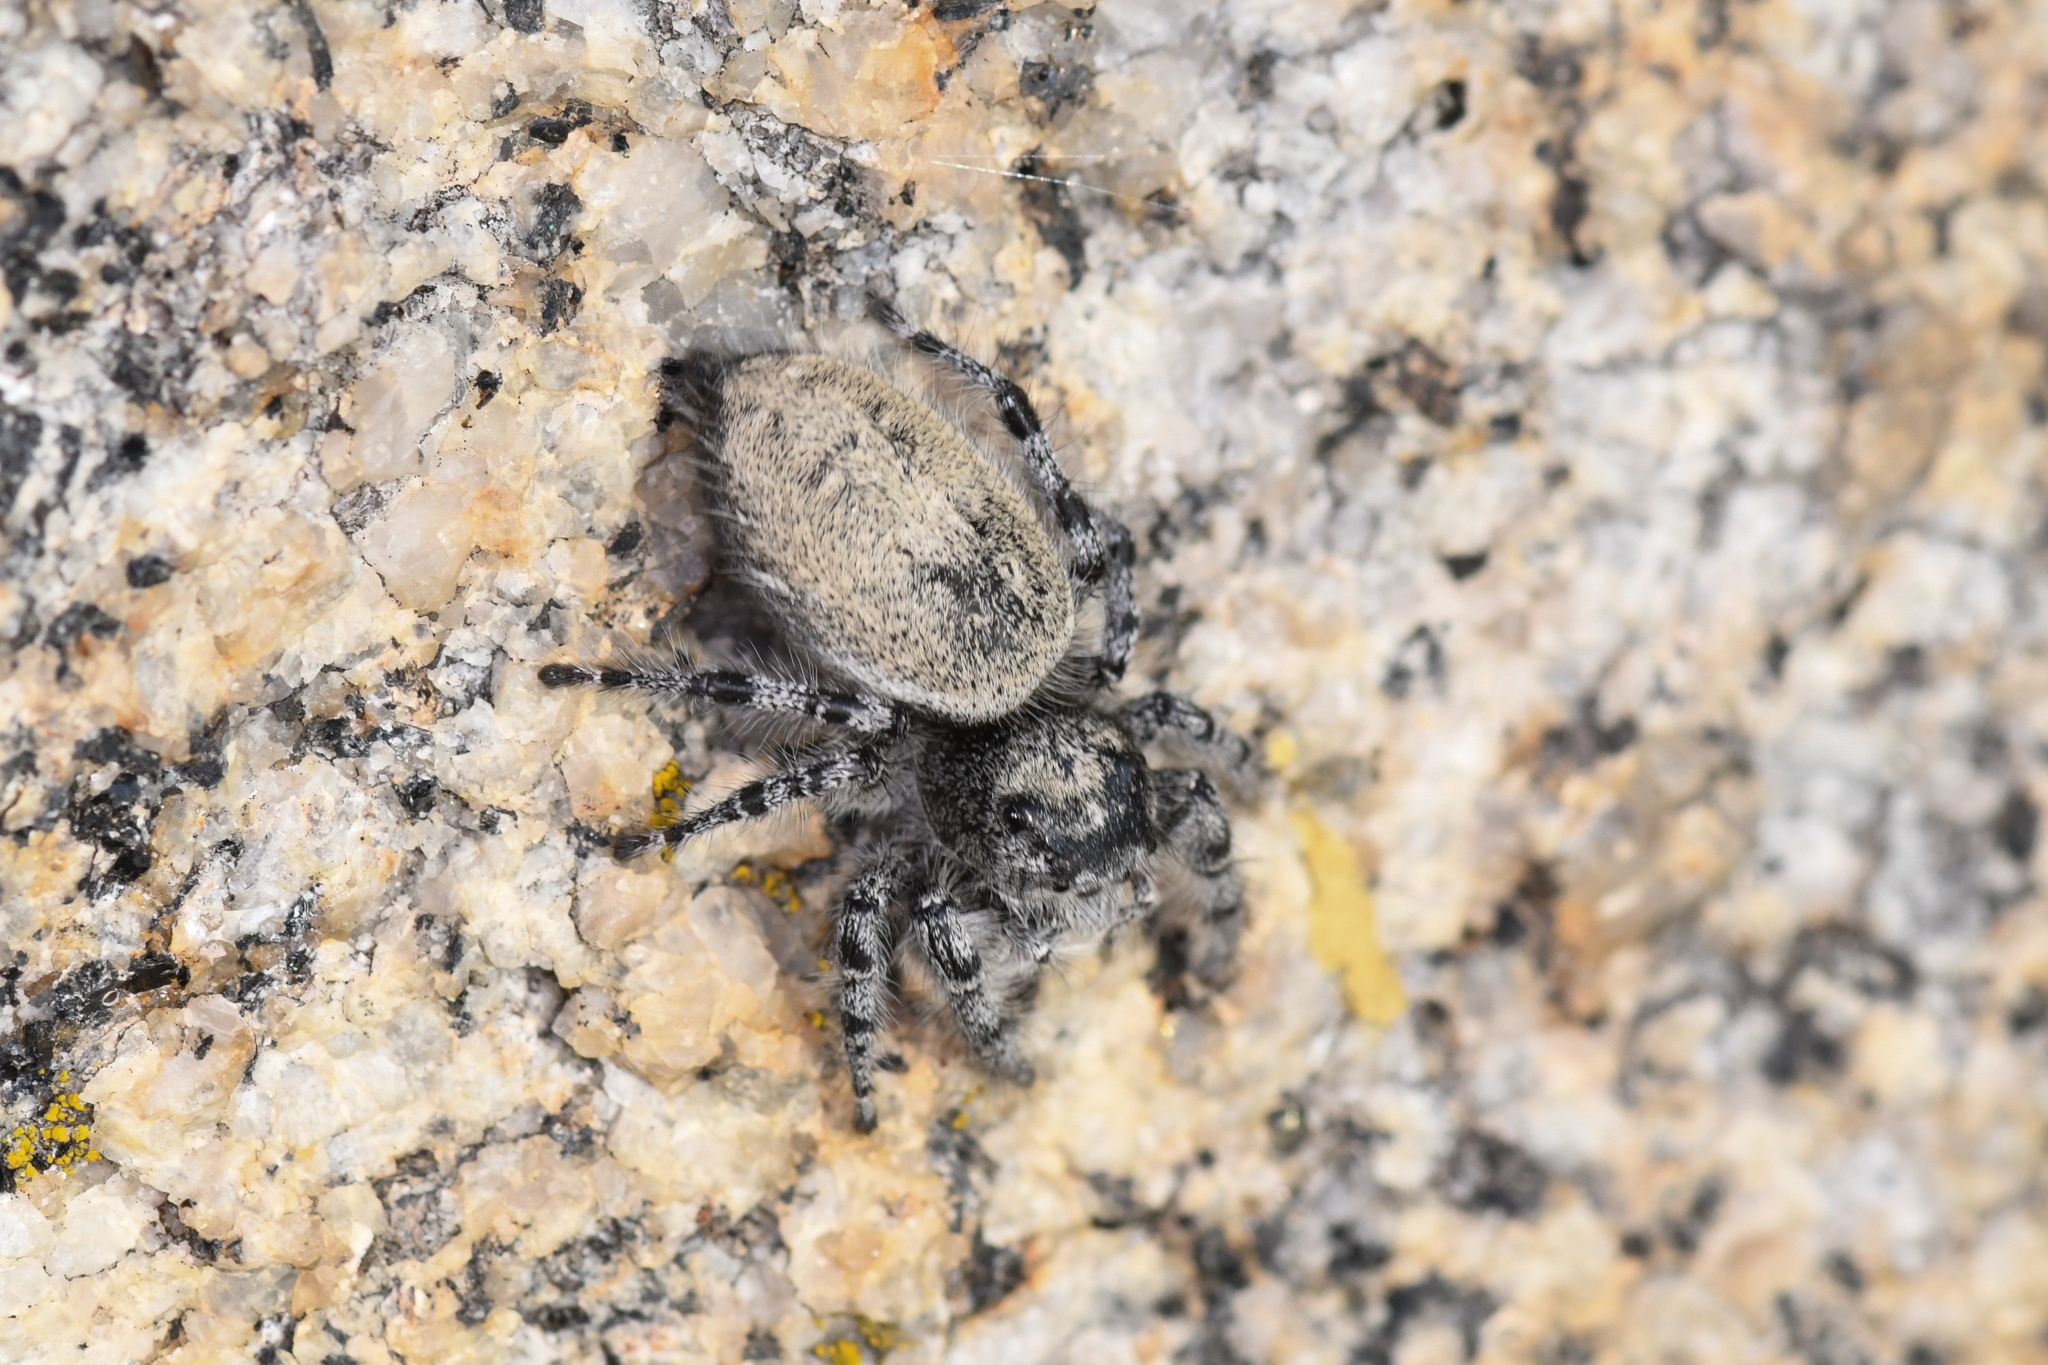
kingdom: Animalia
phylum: Arthropoda
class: Arachnida
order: Araneae
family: Salticidae
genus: Phidippus
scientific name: Phidippus adumbratus
